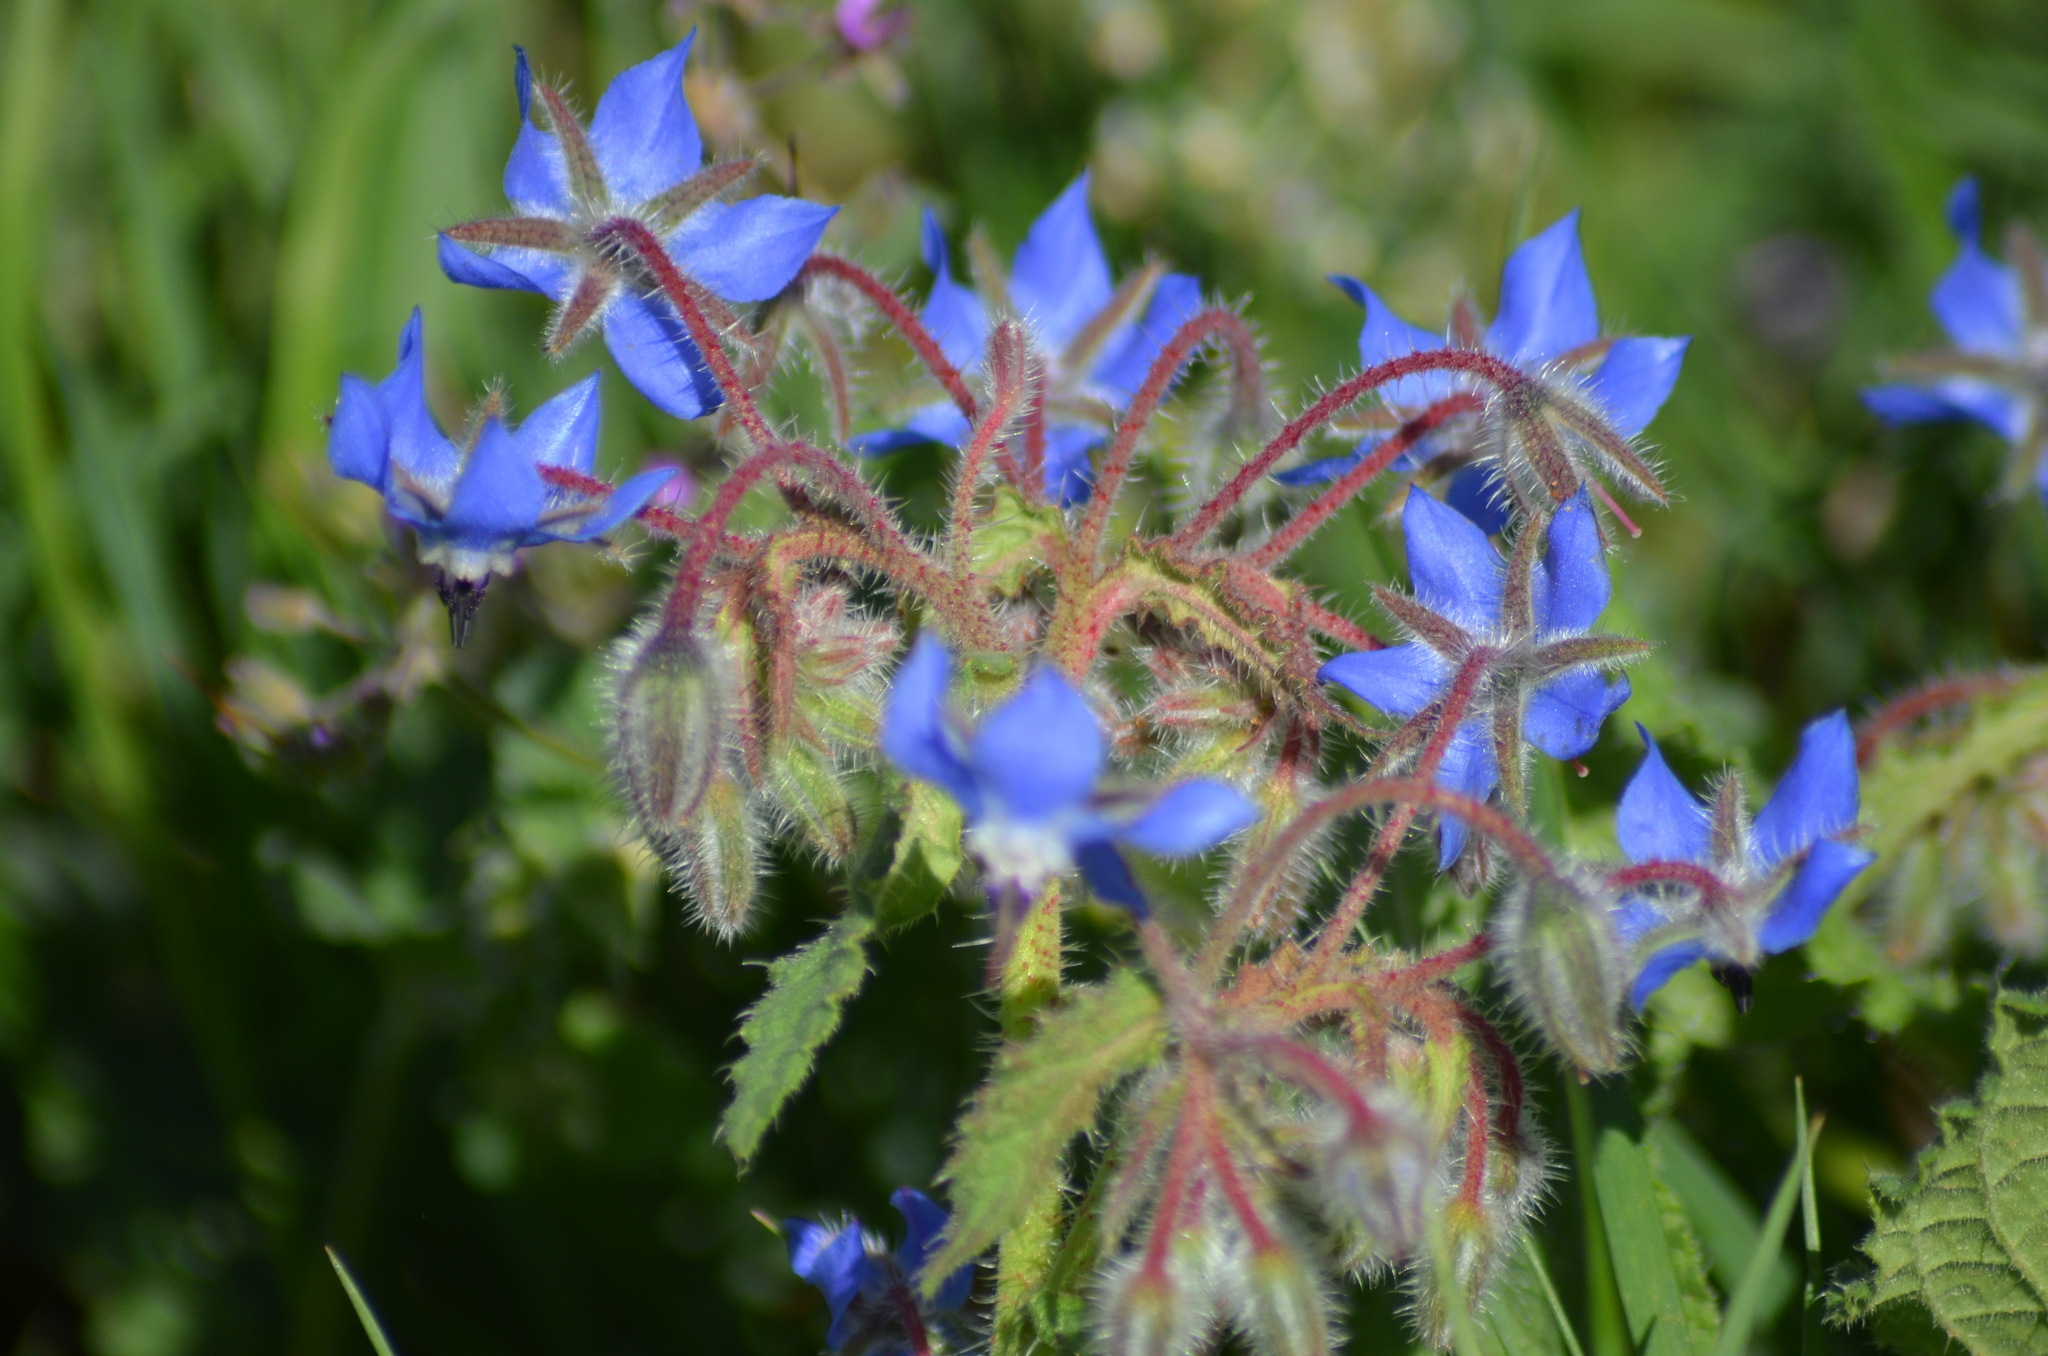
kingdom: Plantae
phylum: Tracheophyta
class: Magnoliopsida
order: Boraginales
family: Boraginaceae
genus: Borago
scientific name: Borago officinalis
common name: Borage
